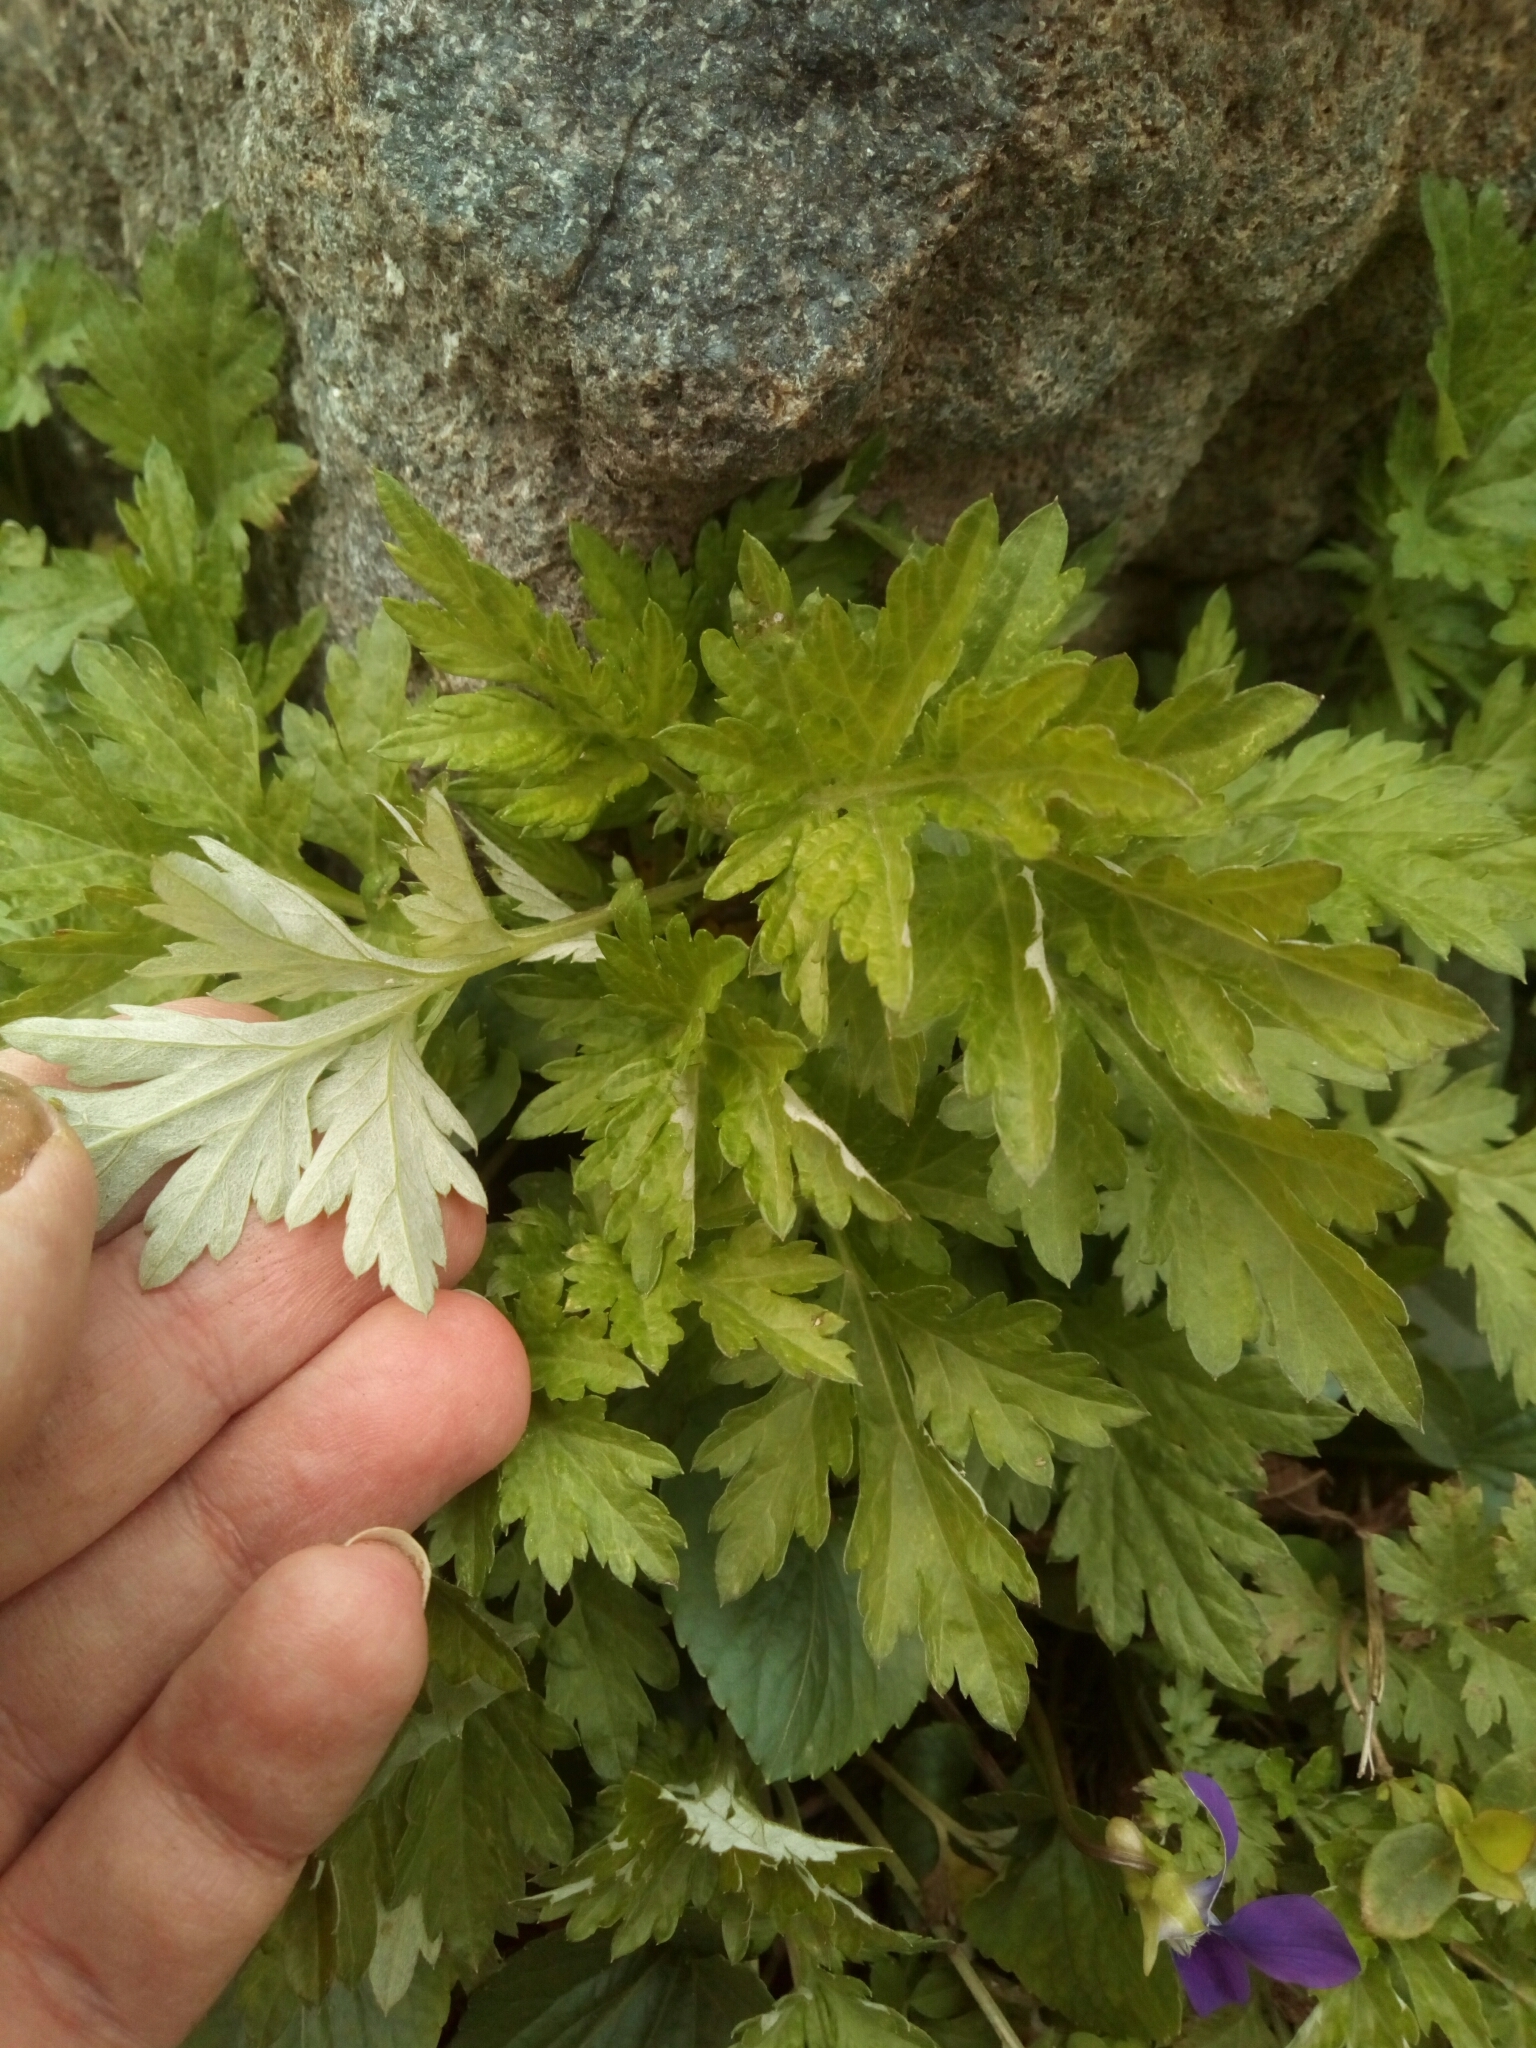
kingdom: Plantae
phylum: Tracheophyta
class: Magnoliopsida
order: Asterales
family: Asteraceae
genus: Artemisia
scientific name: Artemisia vulgaris
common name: Mugwort
